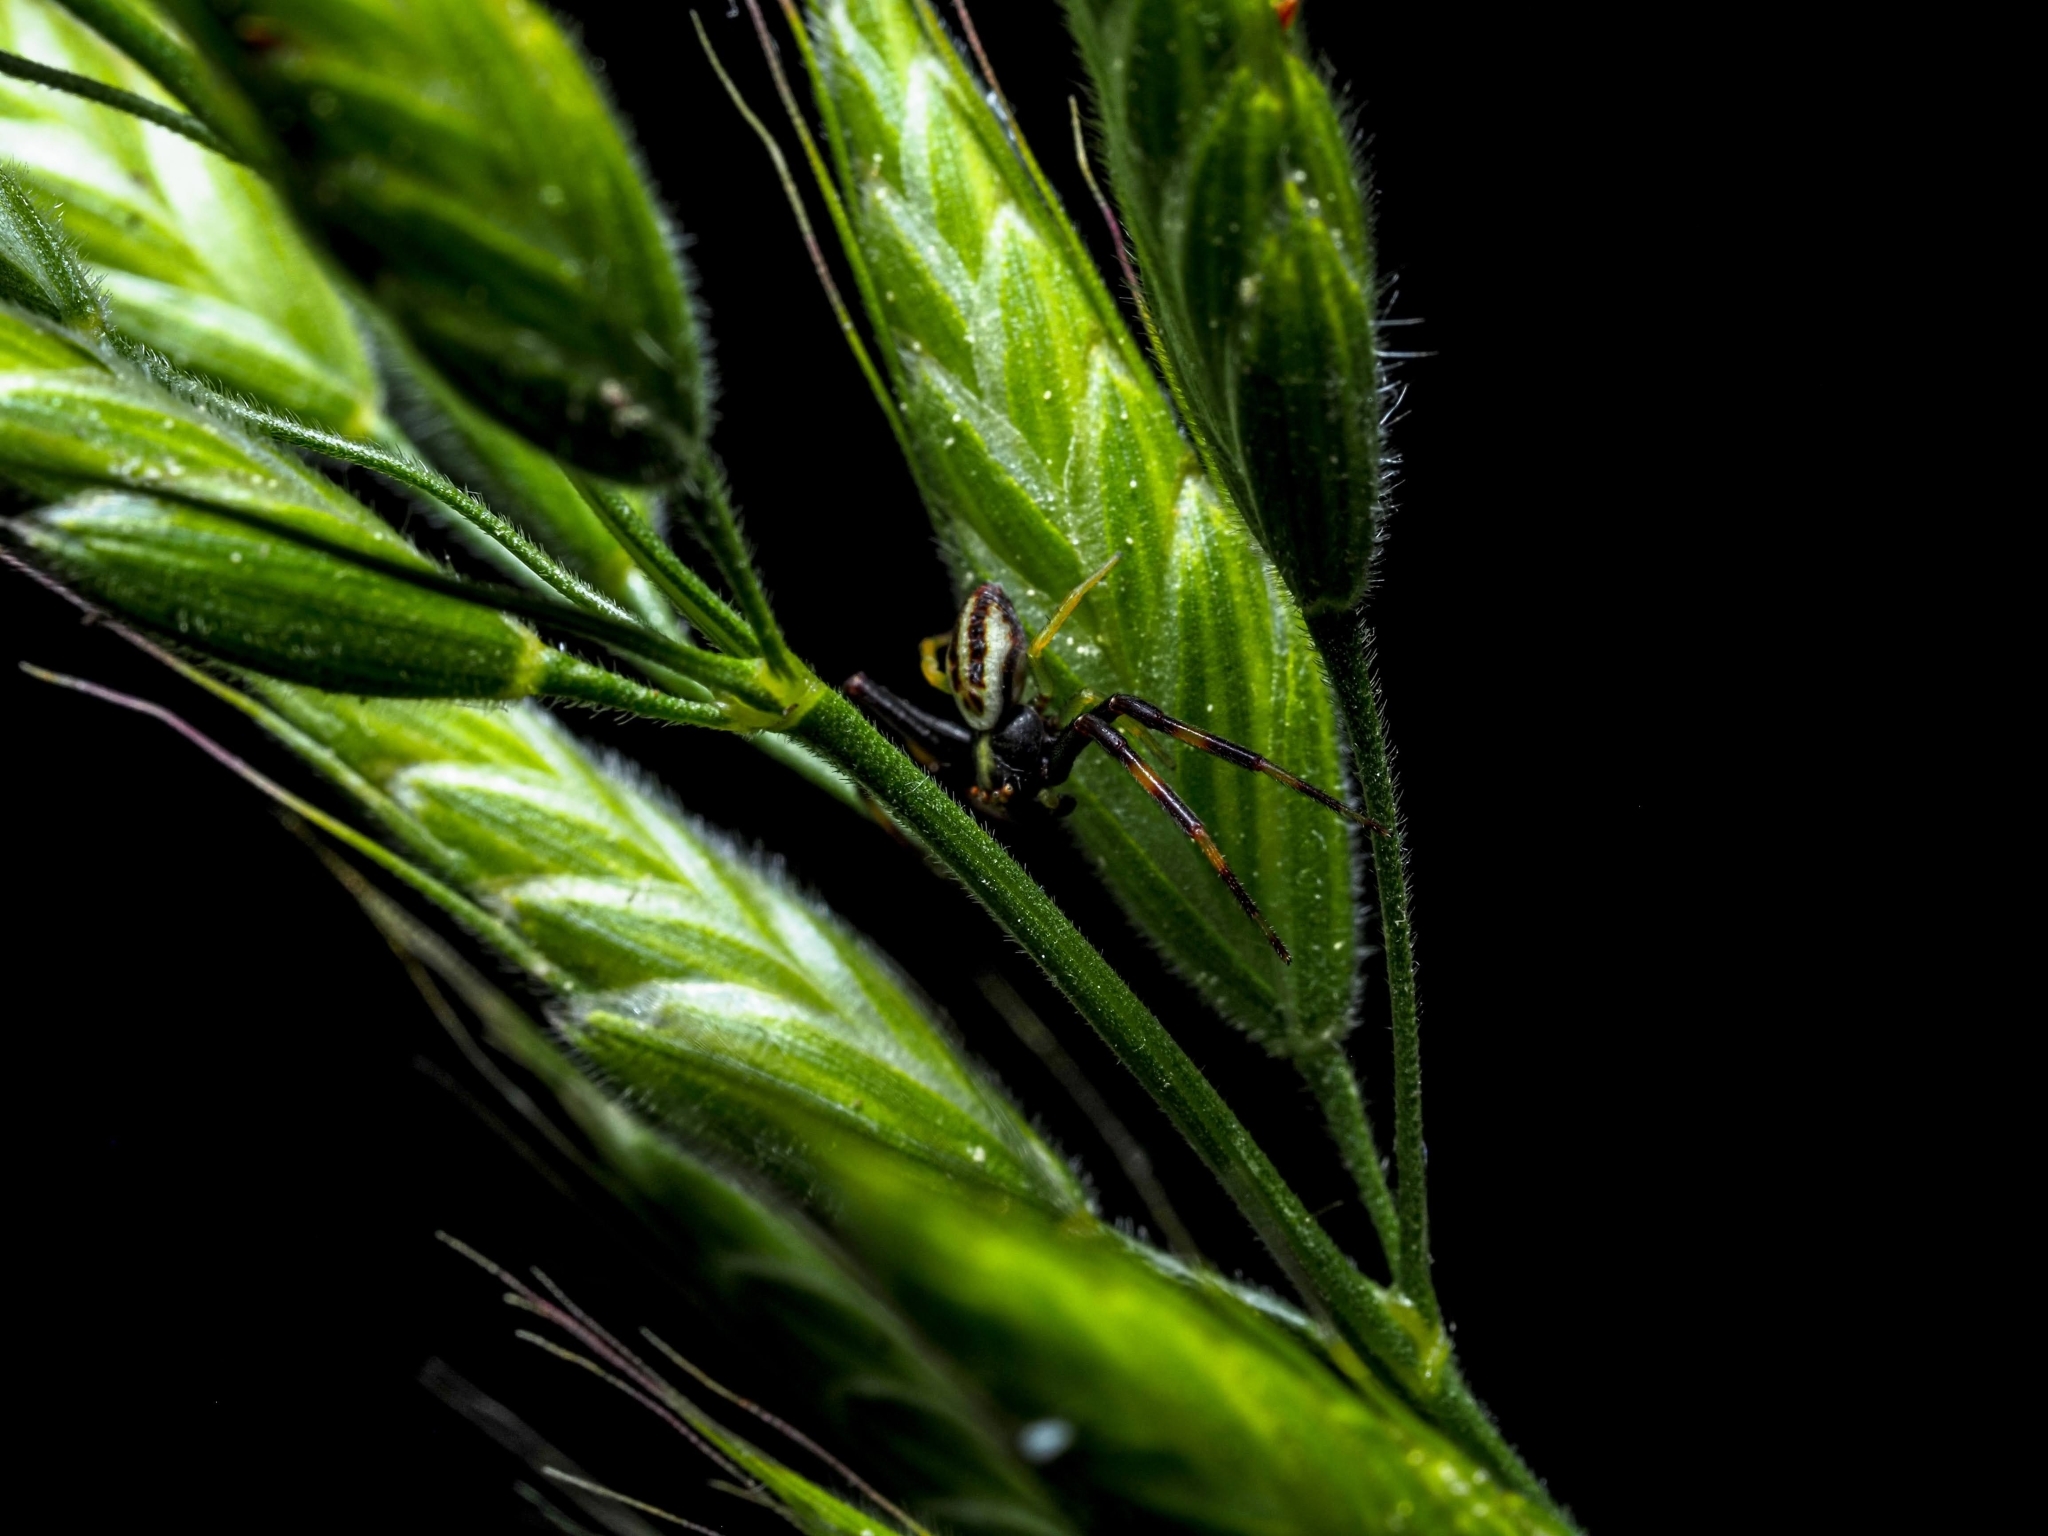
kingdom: Animalia
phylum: Arthropoda
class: Arachnida
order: Araneae
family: Thomisidae
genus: Misumena
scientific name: Misumena vatia
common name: Goldenrod crab spider
